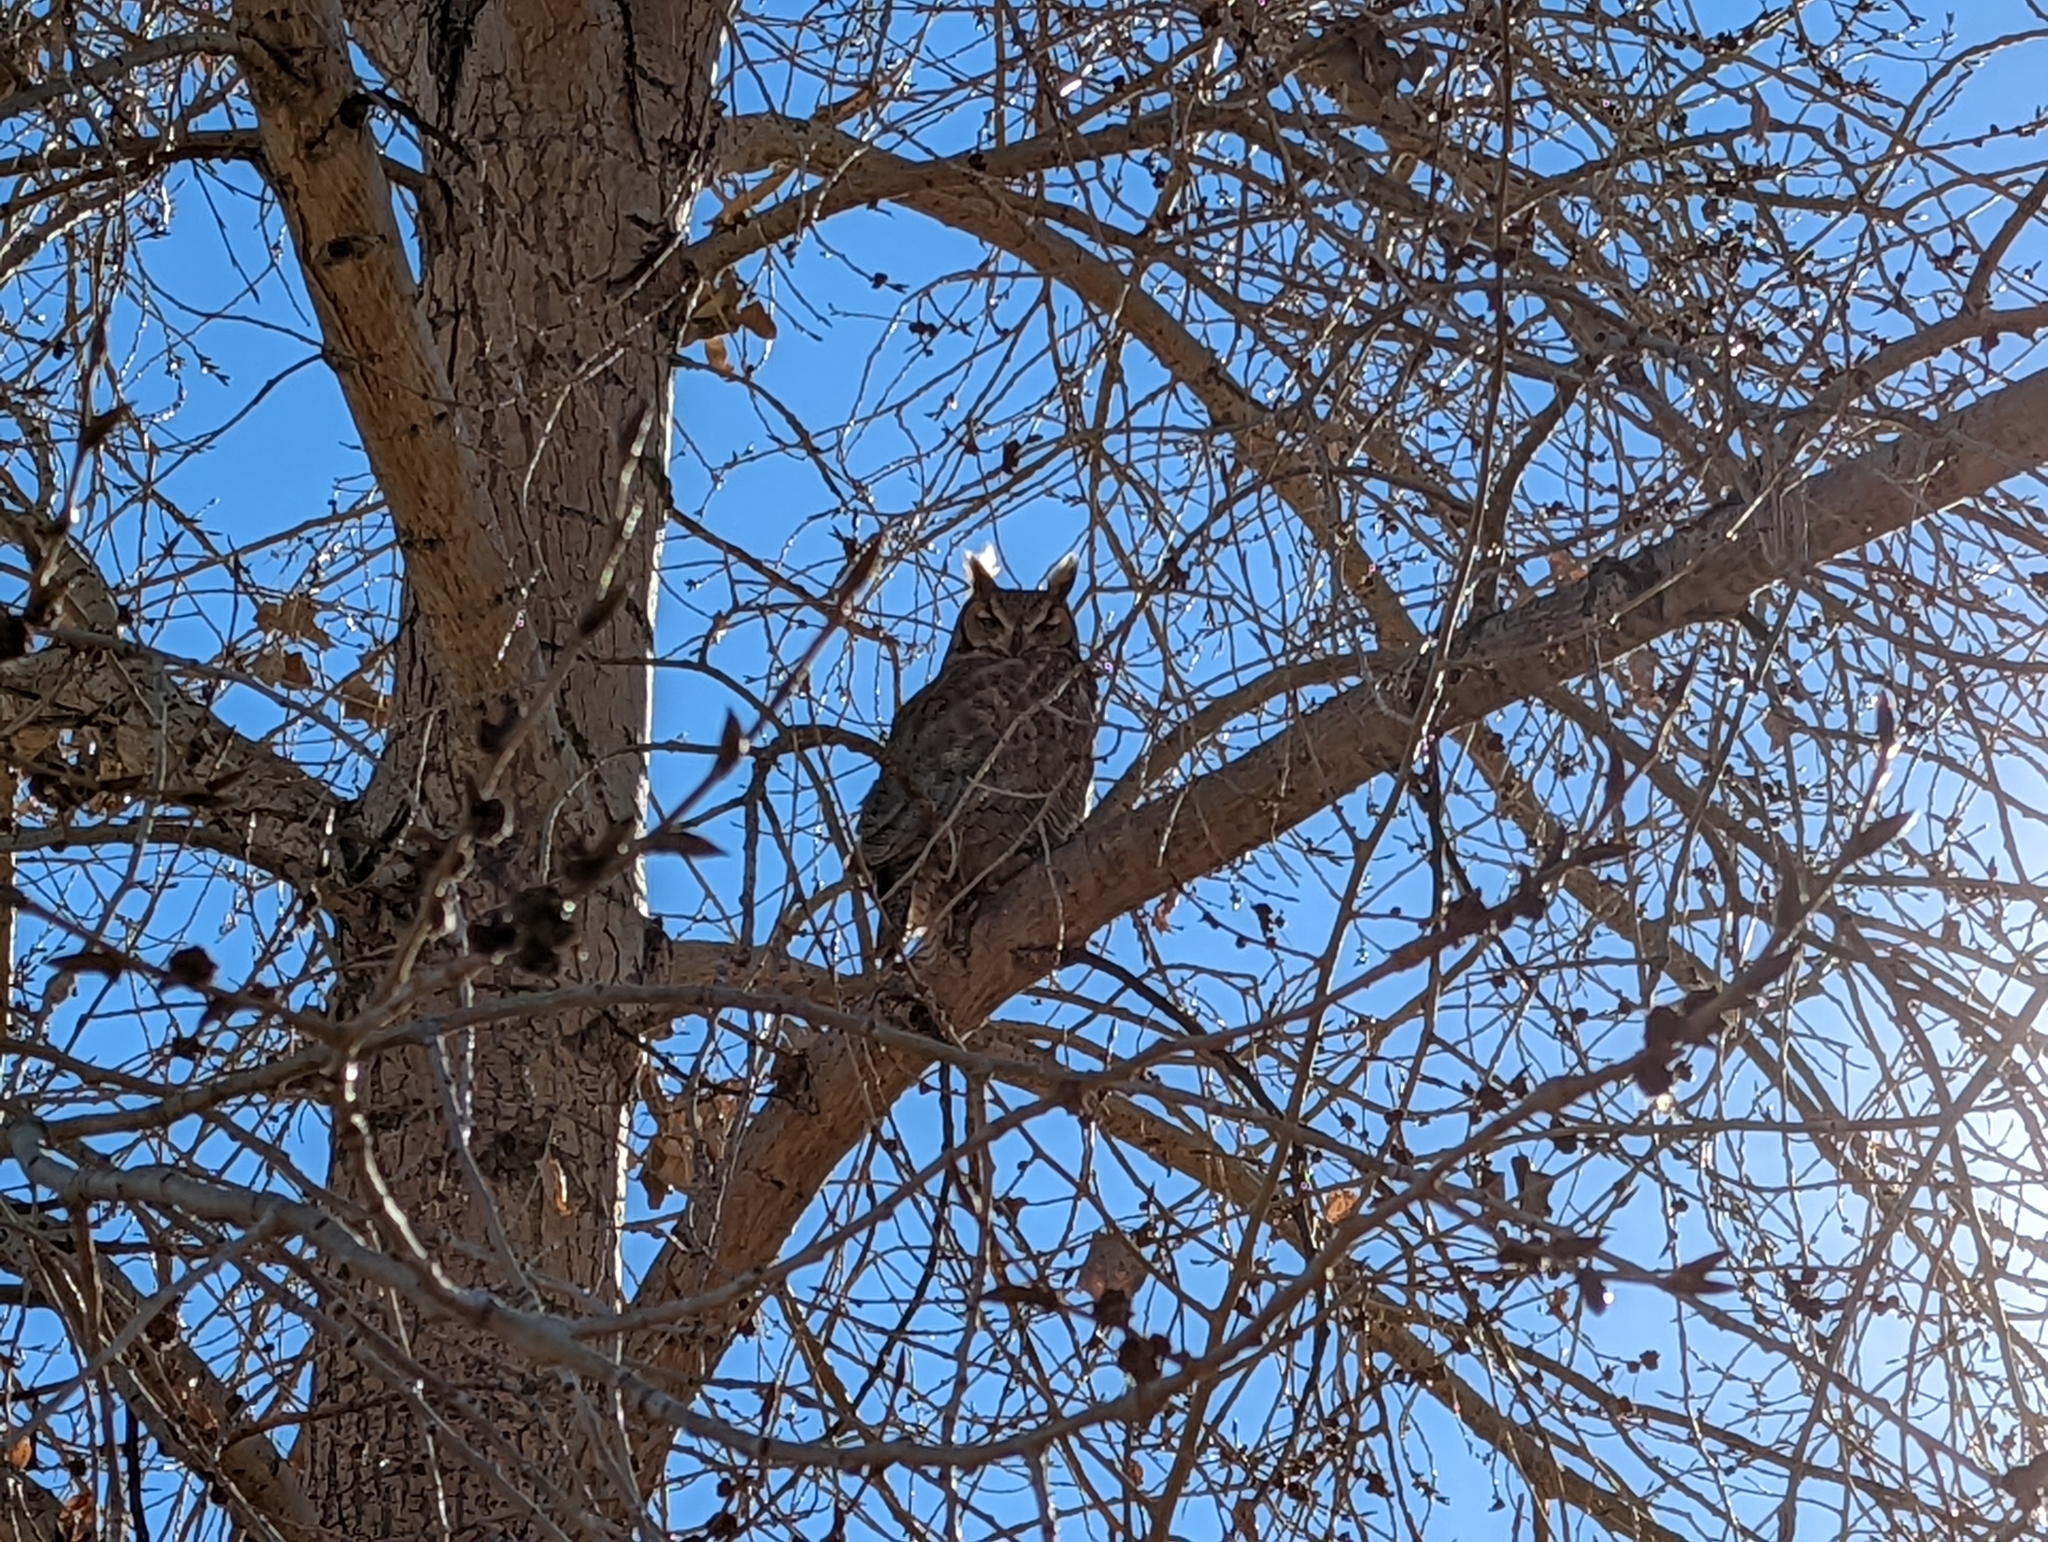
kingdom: Animalia
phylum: Chordata
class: Aves
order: Strigiformes
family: Strigidae
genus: Bubo
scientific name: Bubo virginianus
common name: Great horned owl
